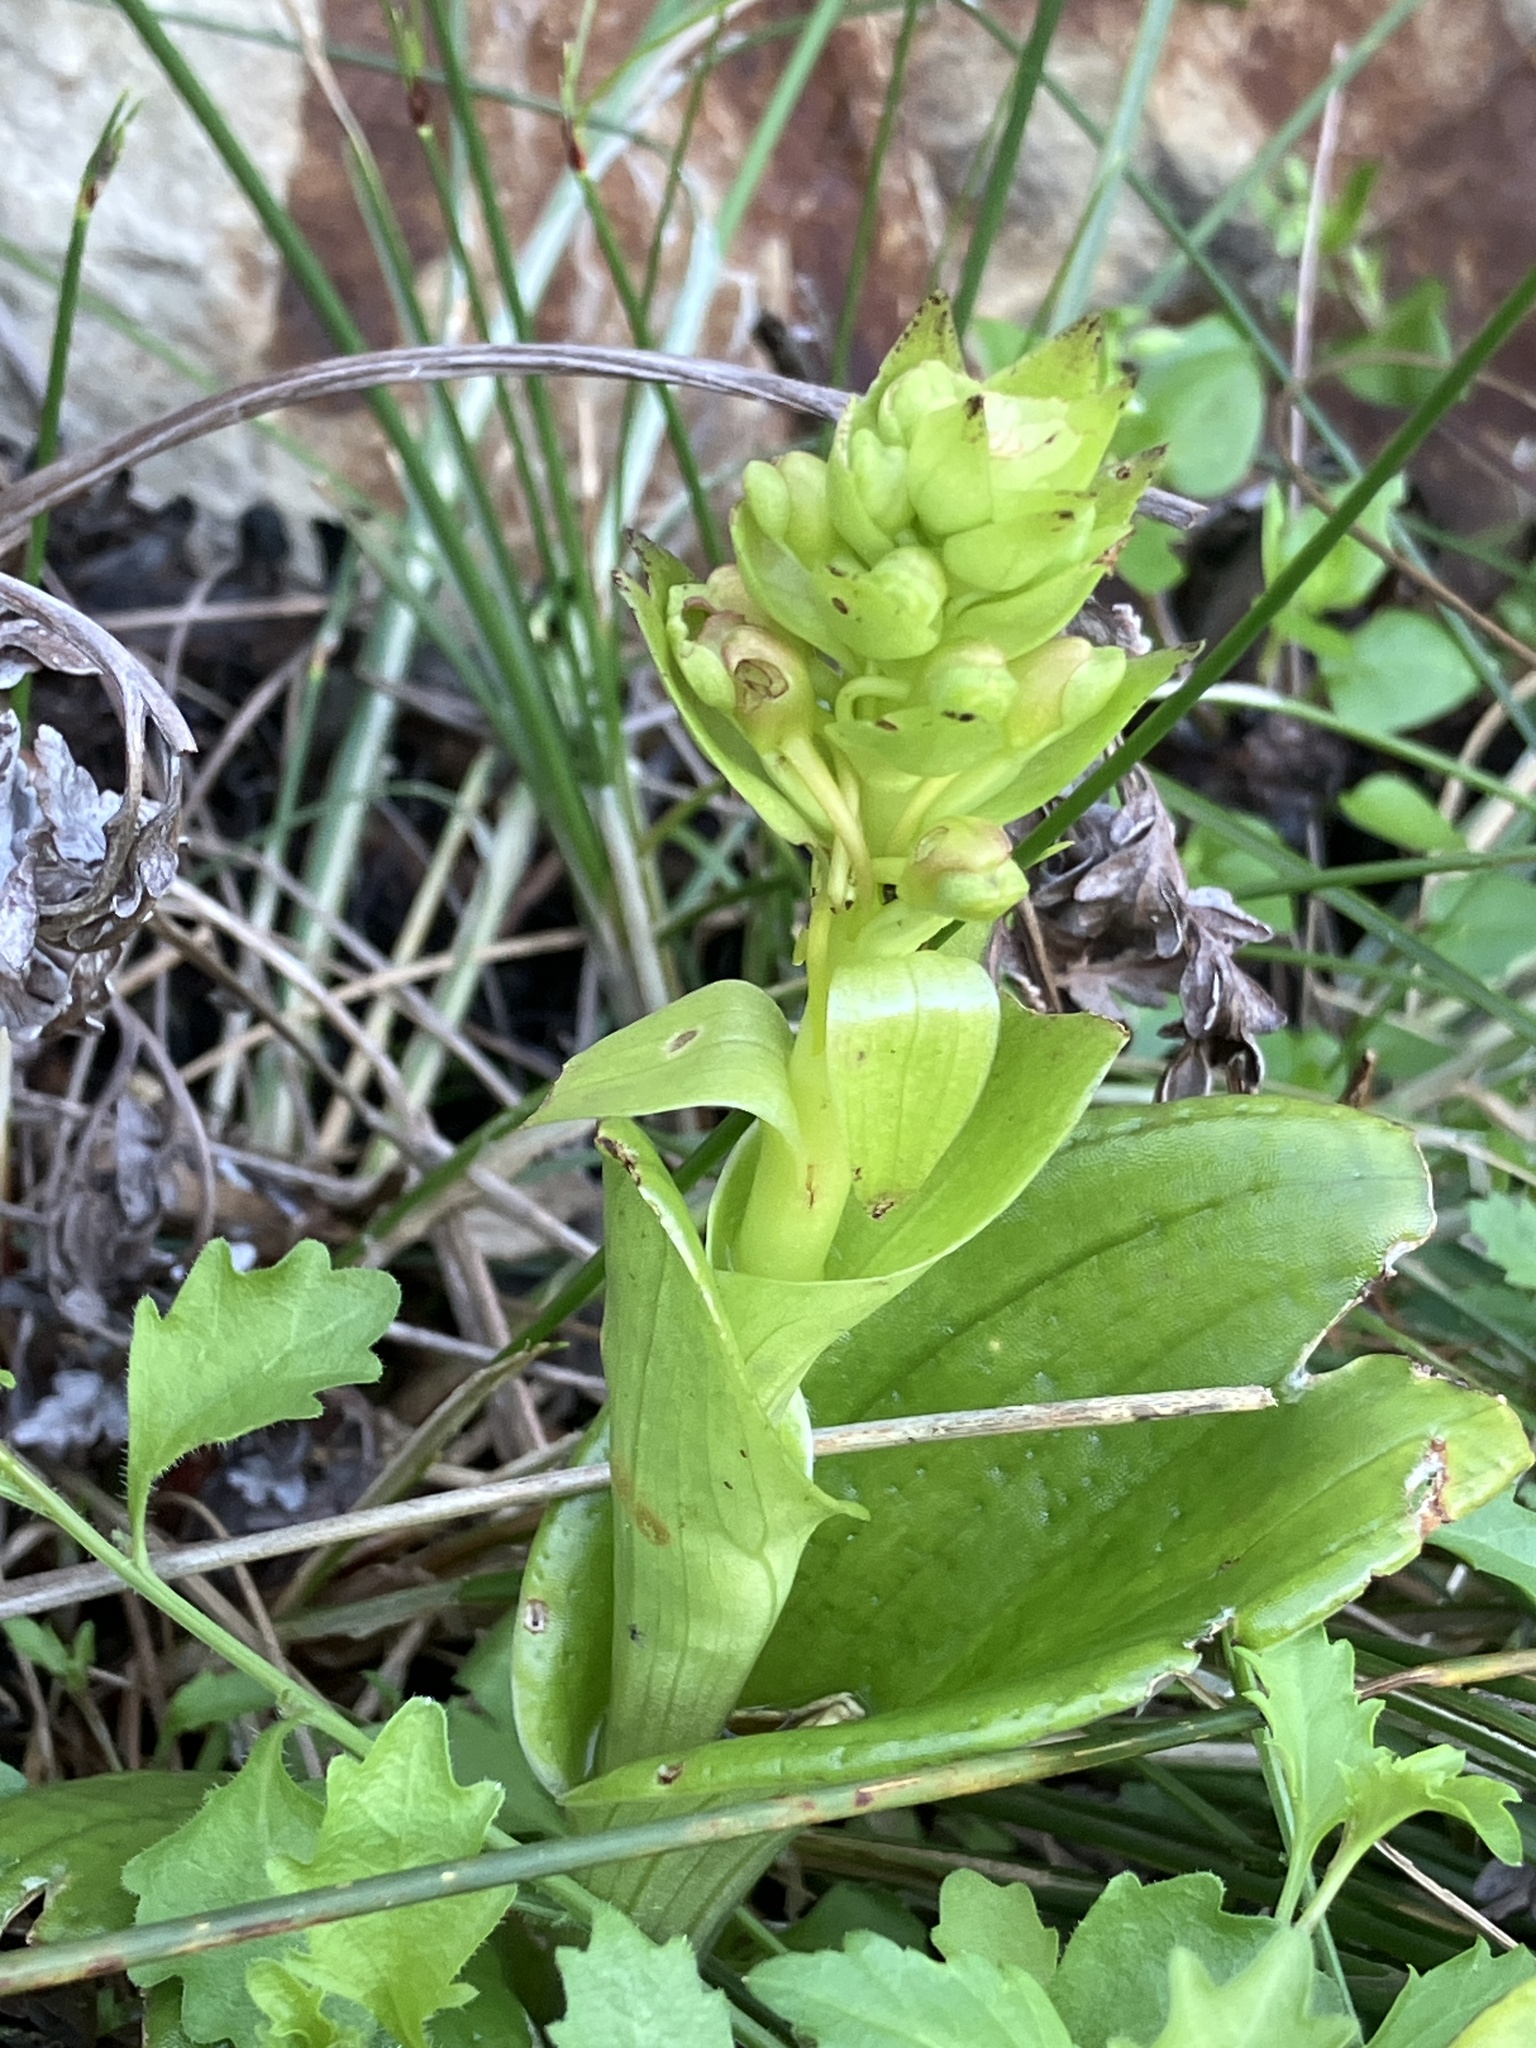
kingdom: Plantae
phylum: Tracheophyta
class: Liliopsida
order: Asparagales
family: Orchidaceae
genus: Satyrium
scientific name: Satyrium odorum
